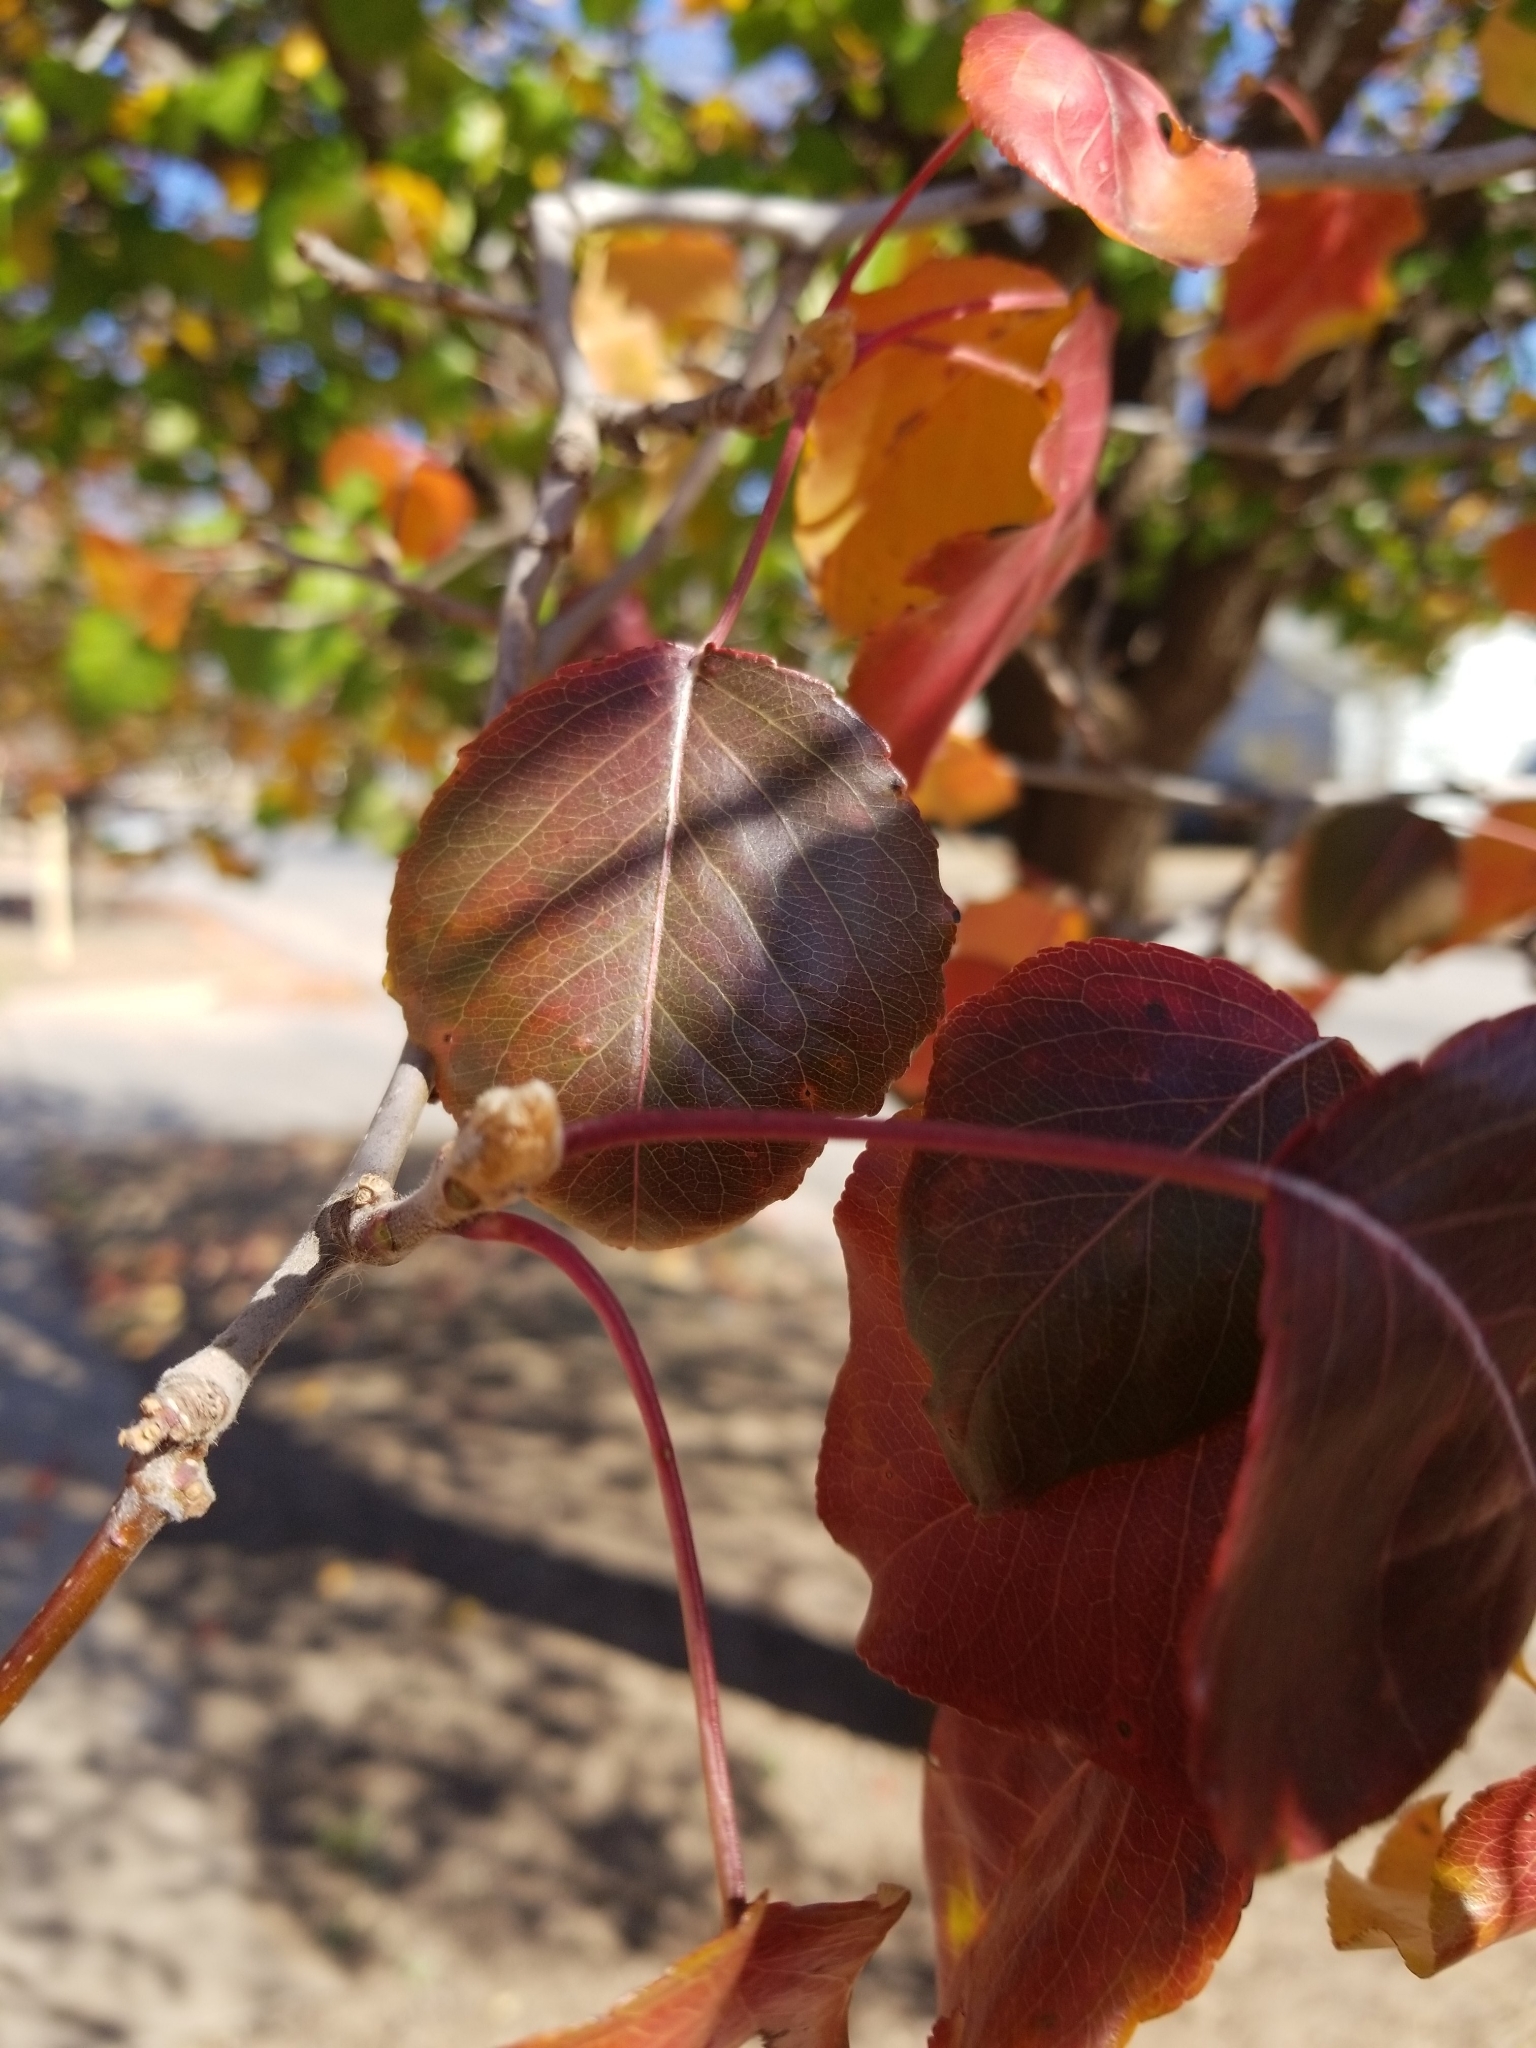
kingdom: Plantae
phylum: Tracheophyta
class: Magnoliopsida
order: Rosales
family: Rosaceae
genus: Pyrus
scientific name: Pyrus calleryana
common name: Callery pear
